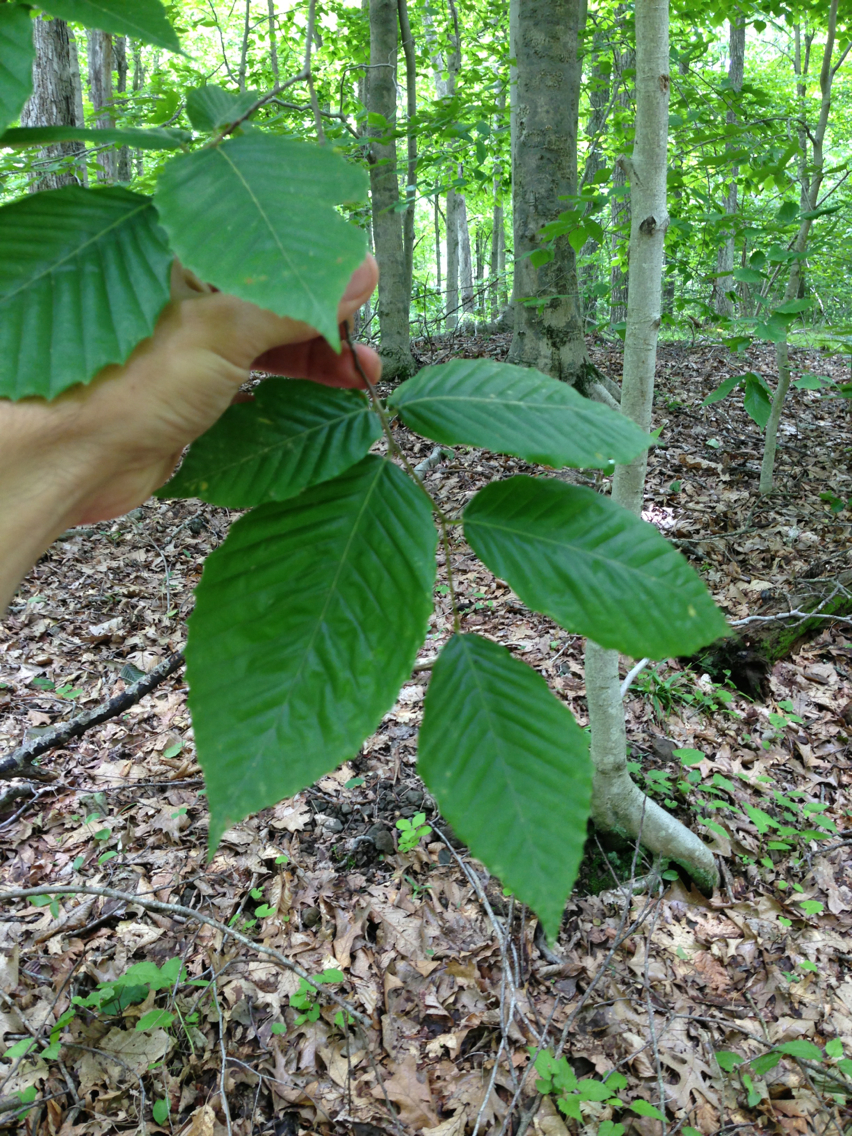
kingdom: Plantae
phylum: Tracheophyta
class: Magnoliopsida
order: Fagales
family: Fagaceae
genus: Fagus
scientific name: Fagus grandifolia
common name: American beech
